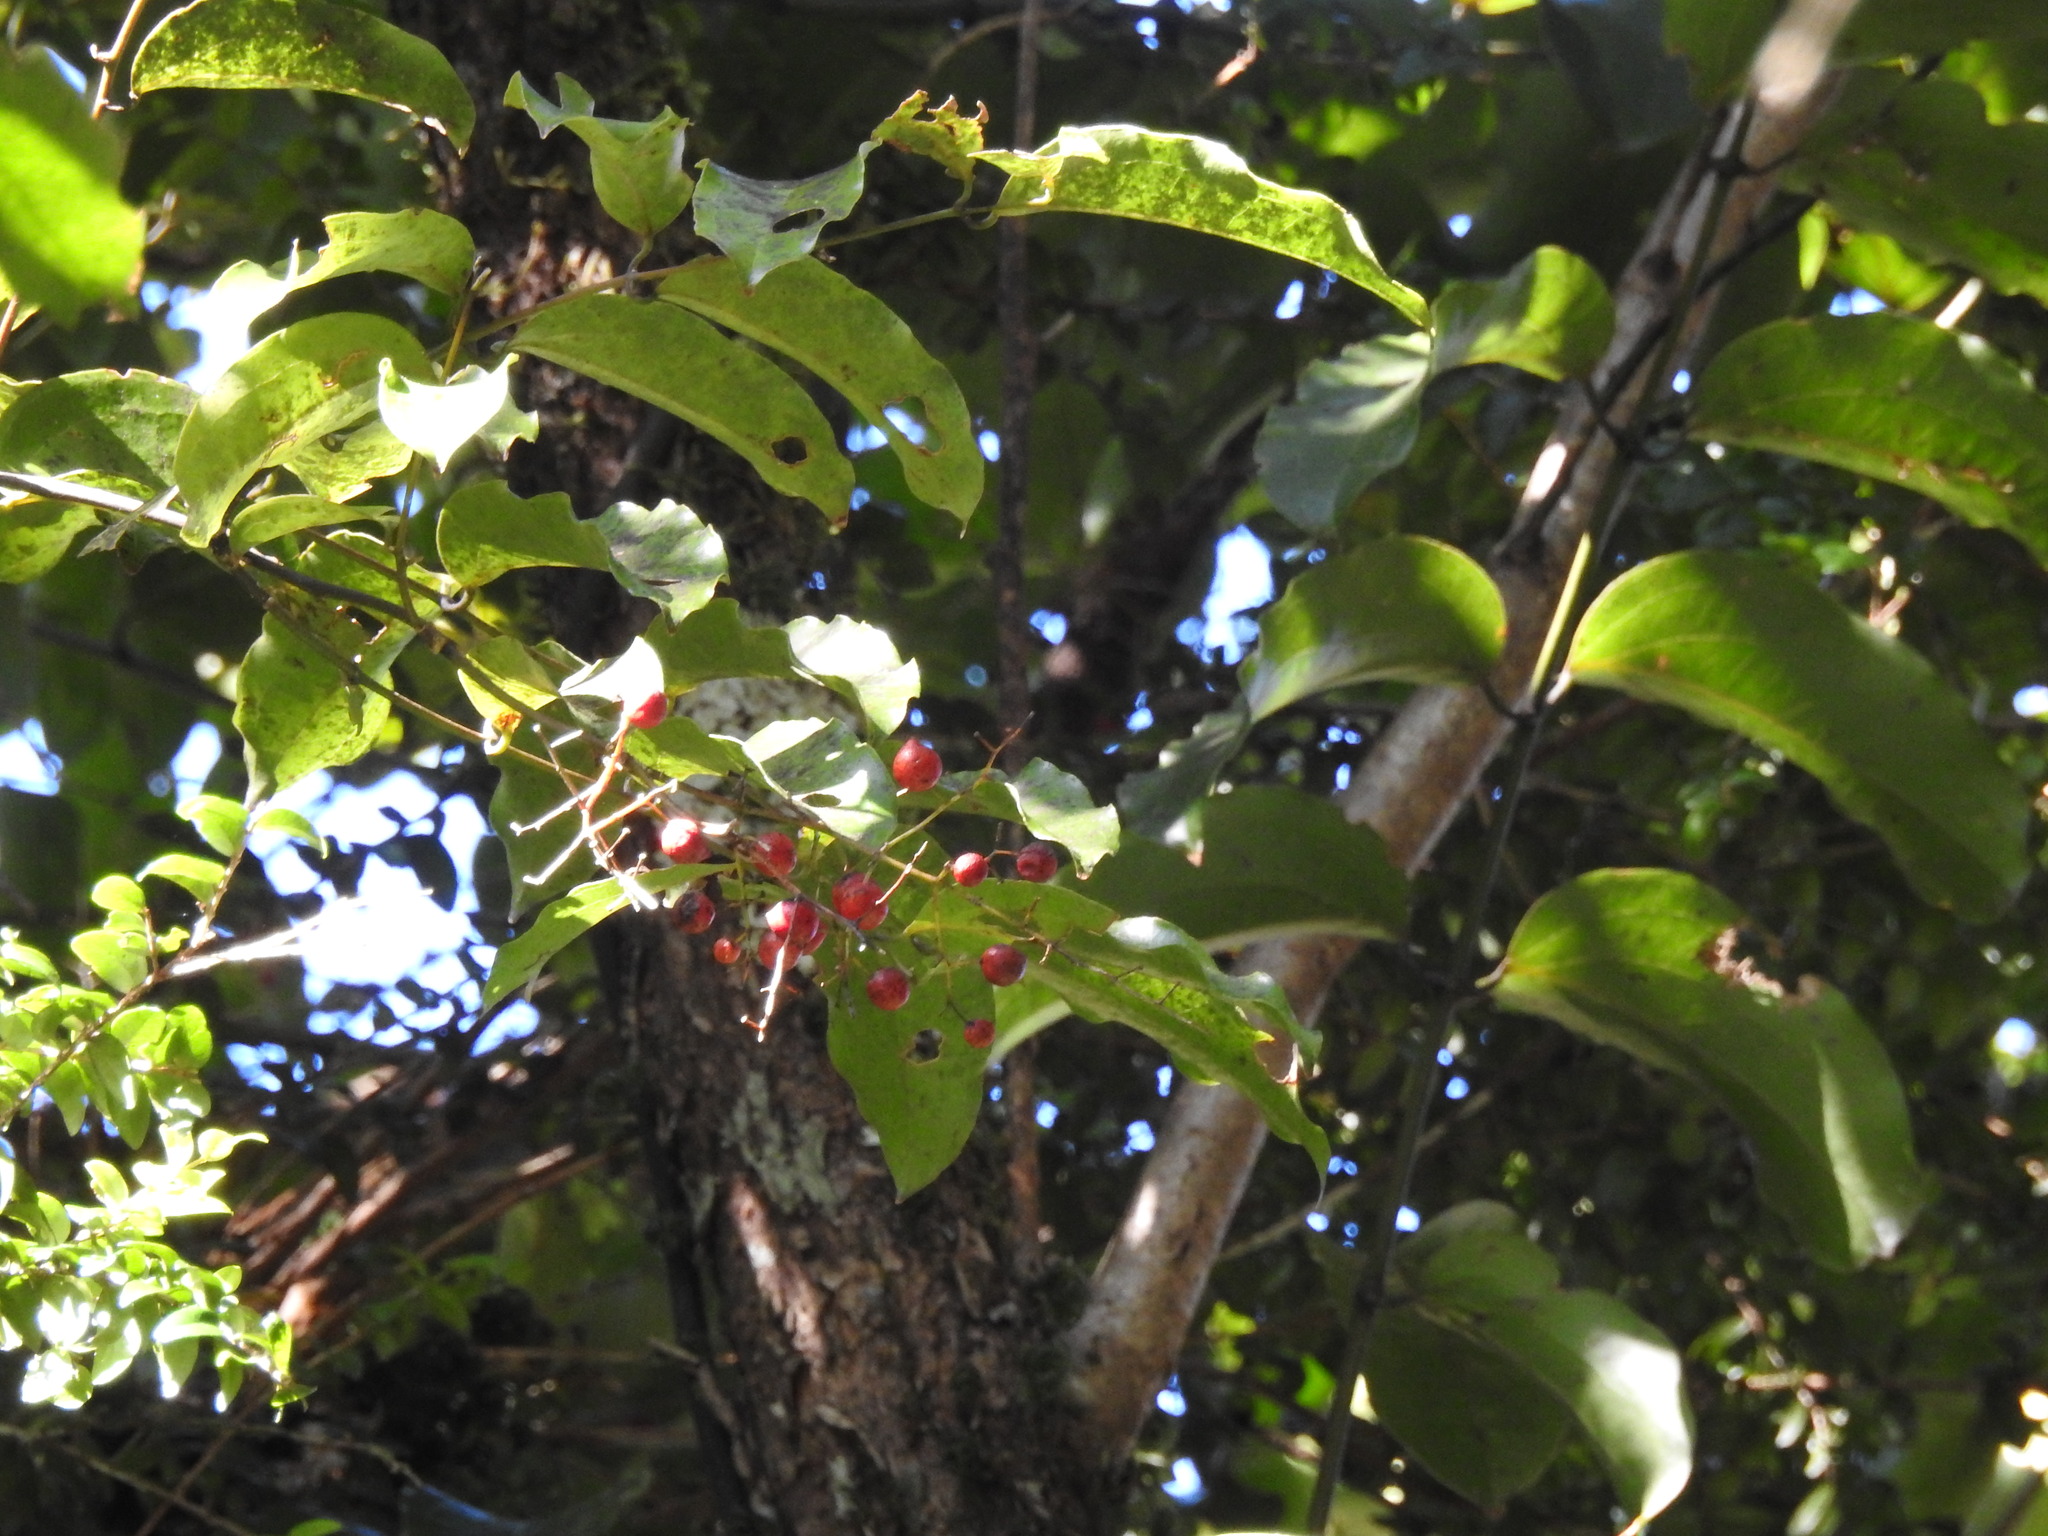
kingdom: Plantae
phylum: Tracheophyta
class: Liliopsida
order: Liliales
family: Ripogonaceae
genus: Ripogonum
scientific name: Ripogonum scandens
